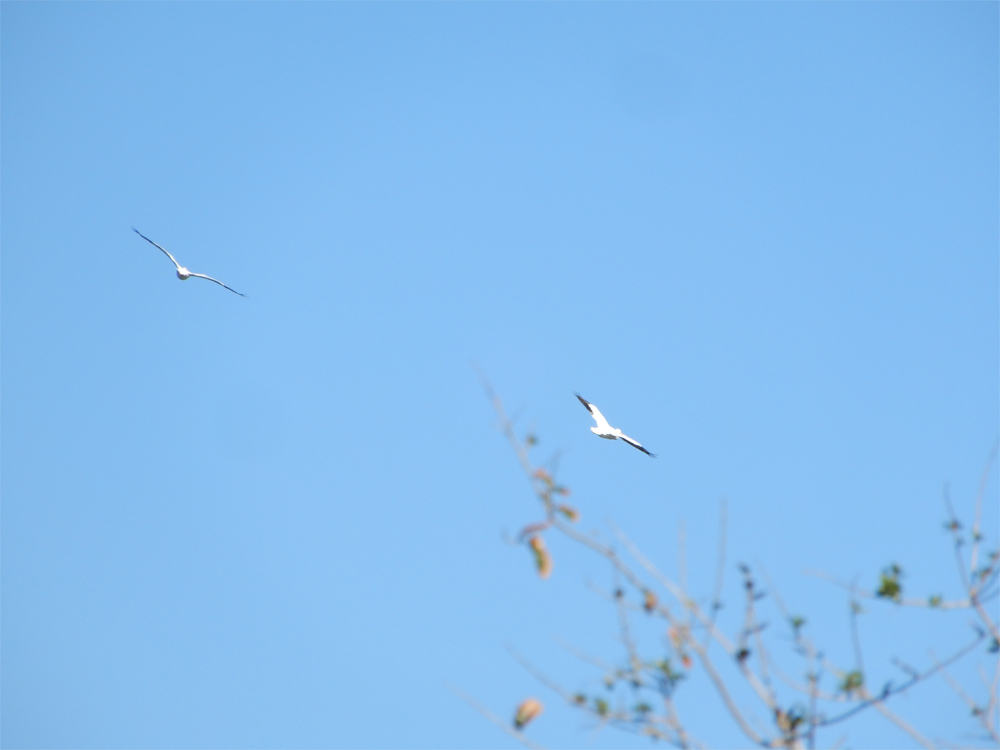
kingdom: Animalia
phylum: Chordata
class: Aves
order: Pelecaniformes
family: Pelecanidae
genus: Pelecanus
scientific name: Pelecanus erythrorhynchos
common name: American white pelican
